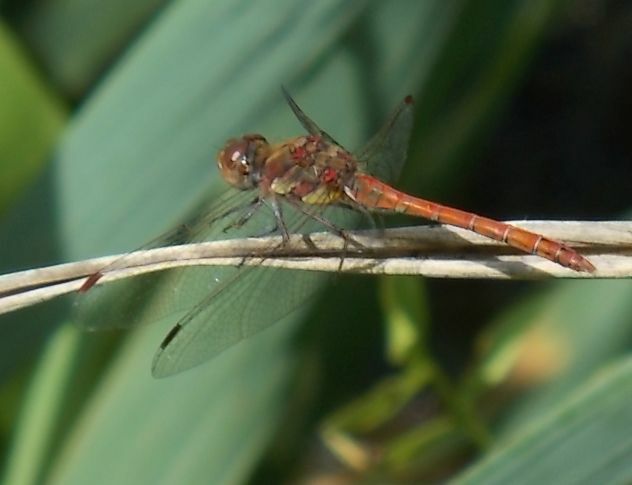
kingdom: Animalia
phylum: Arthropoda
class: Insecta
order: Odonata
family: Libellulidae
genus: Sympetrum
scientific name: Sympetrum striolatum
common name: Common darter
